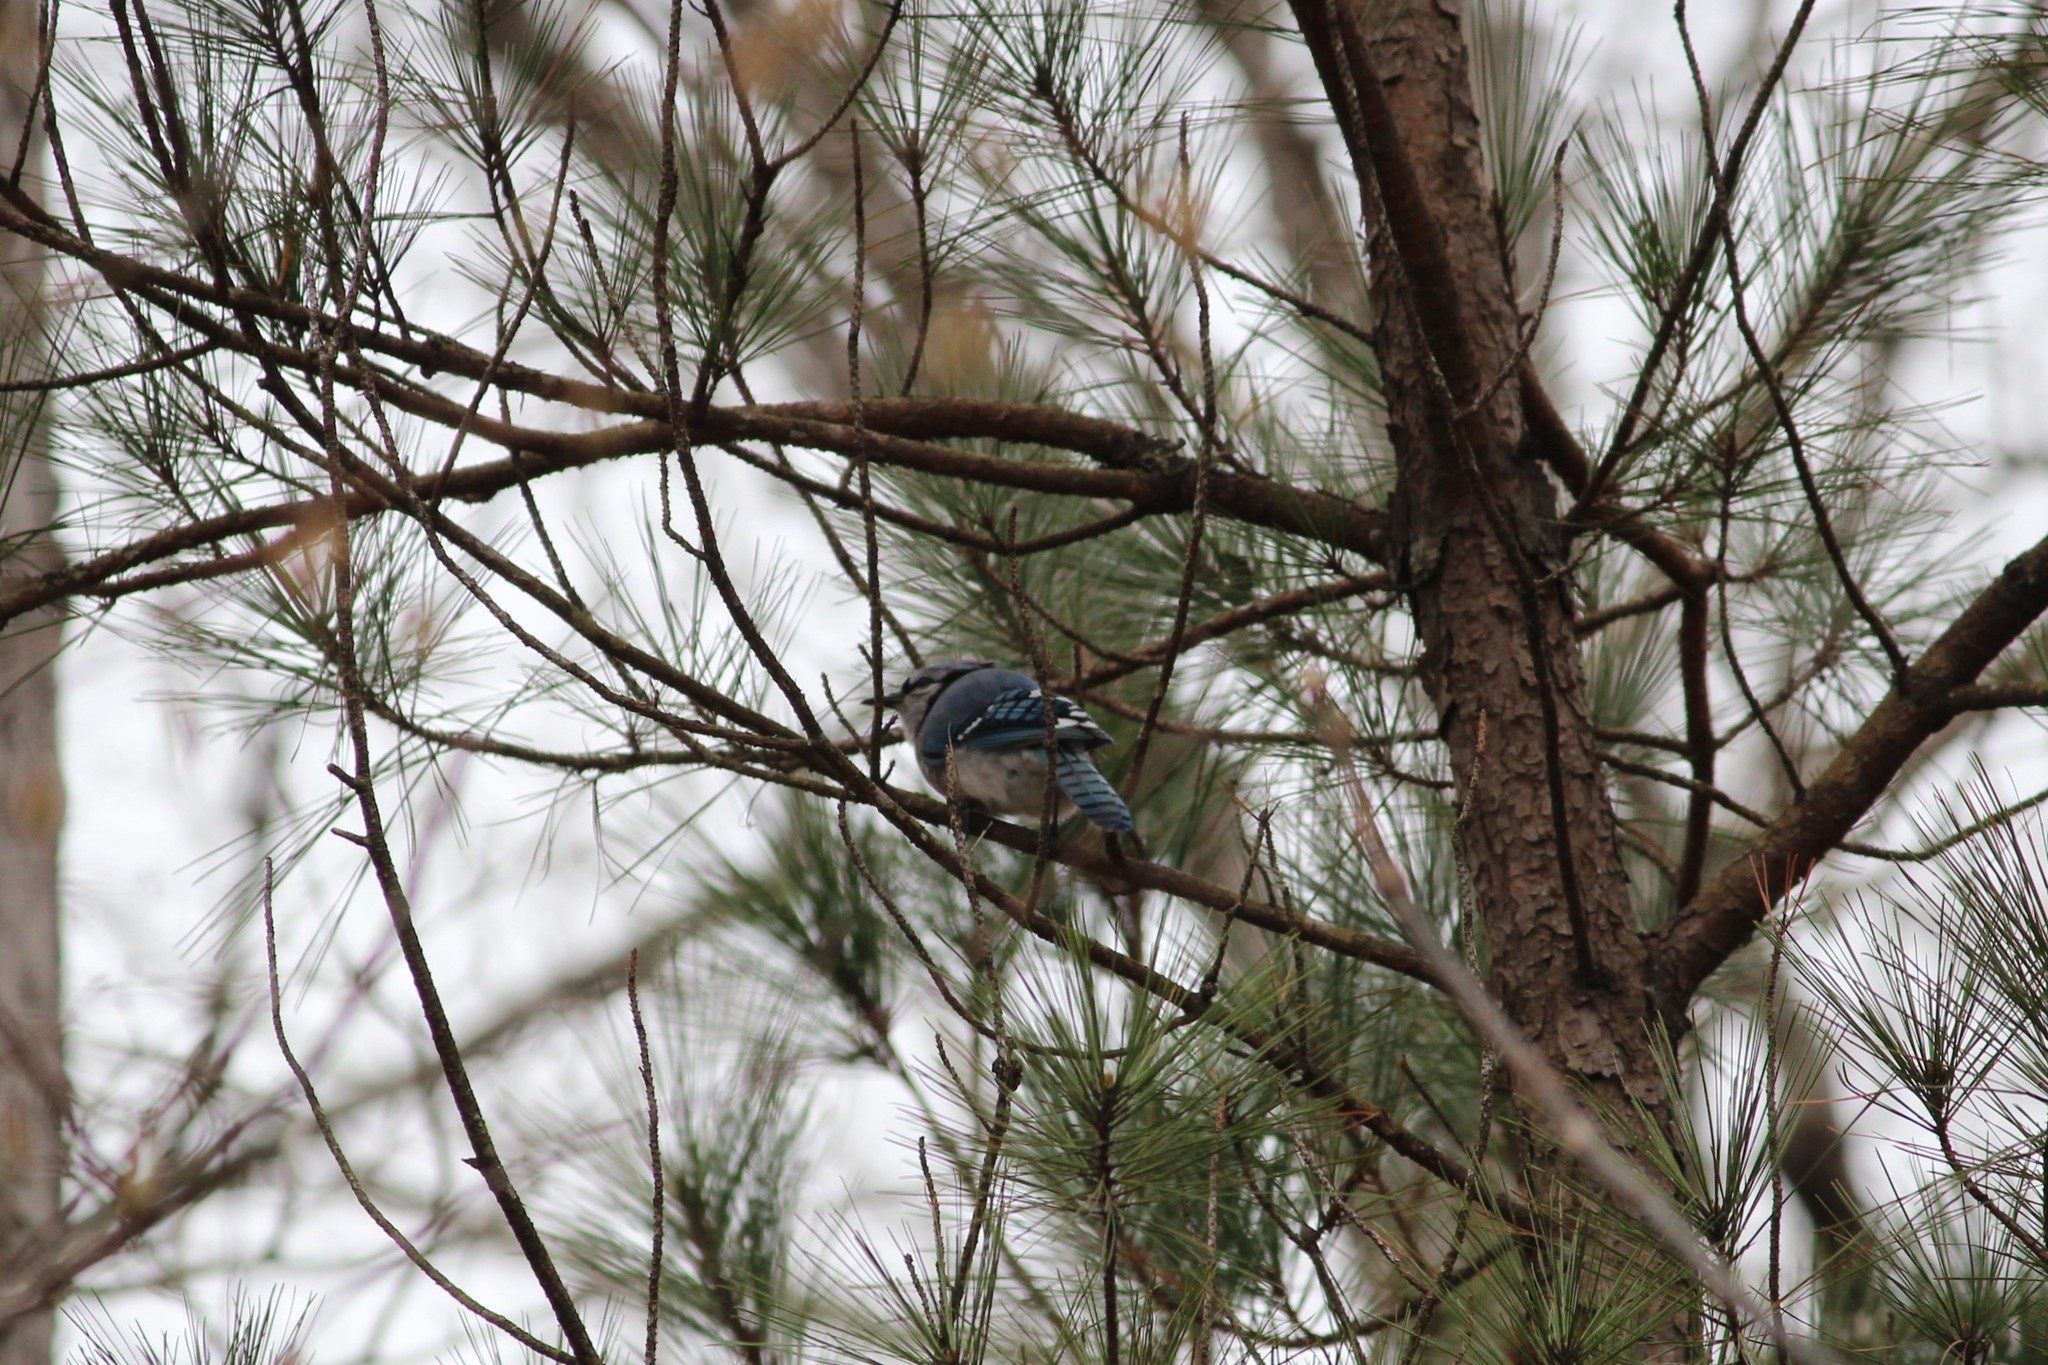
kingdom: Animalia
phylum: Chordata
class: Aves
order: Passeriformes
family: Corvidae
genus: Cyanocitta
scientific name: Cyanocitta cristata
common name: Blue jay
